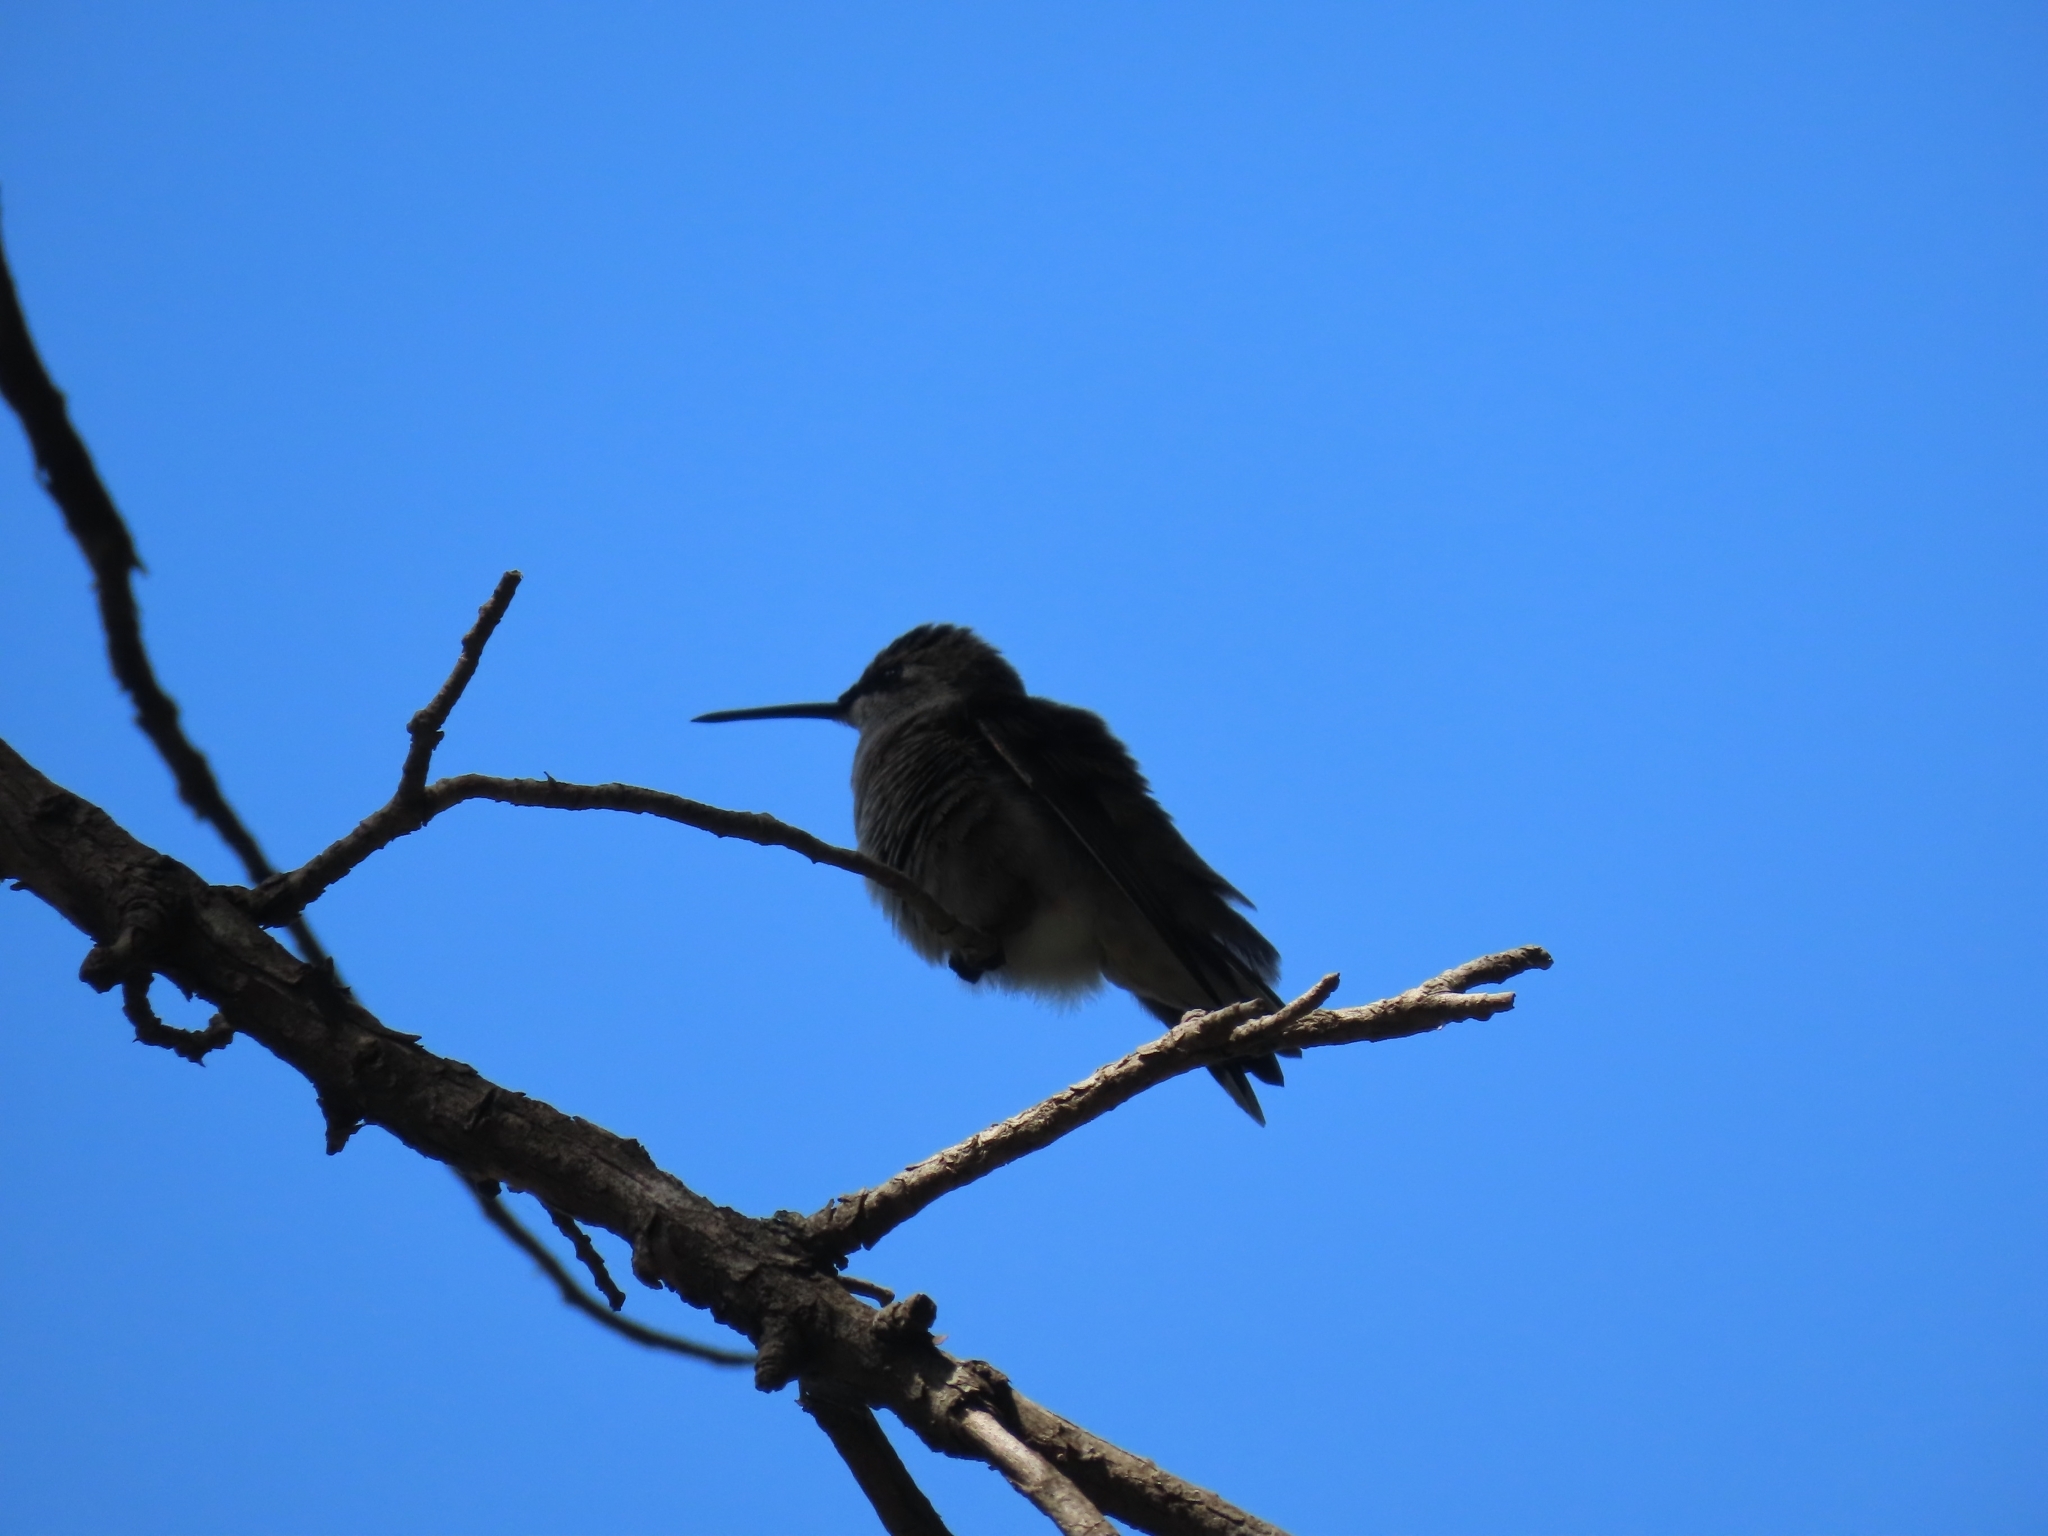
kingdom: Animalia
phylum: Chordata
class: Aves
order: Apodiformes
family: Trochilidae
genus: Archilochus
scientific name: Archilochus alexandri
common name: Black-chinned hummingbird
